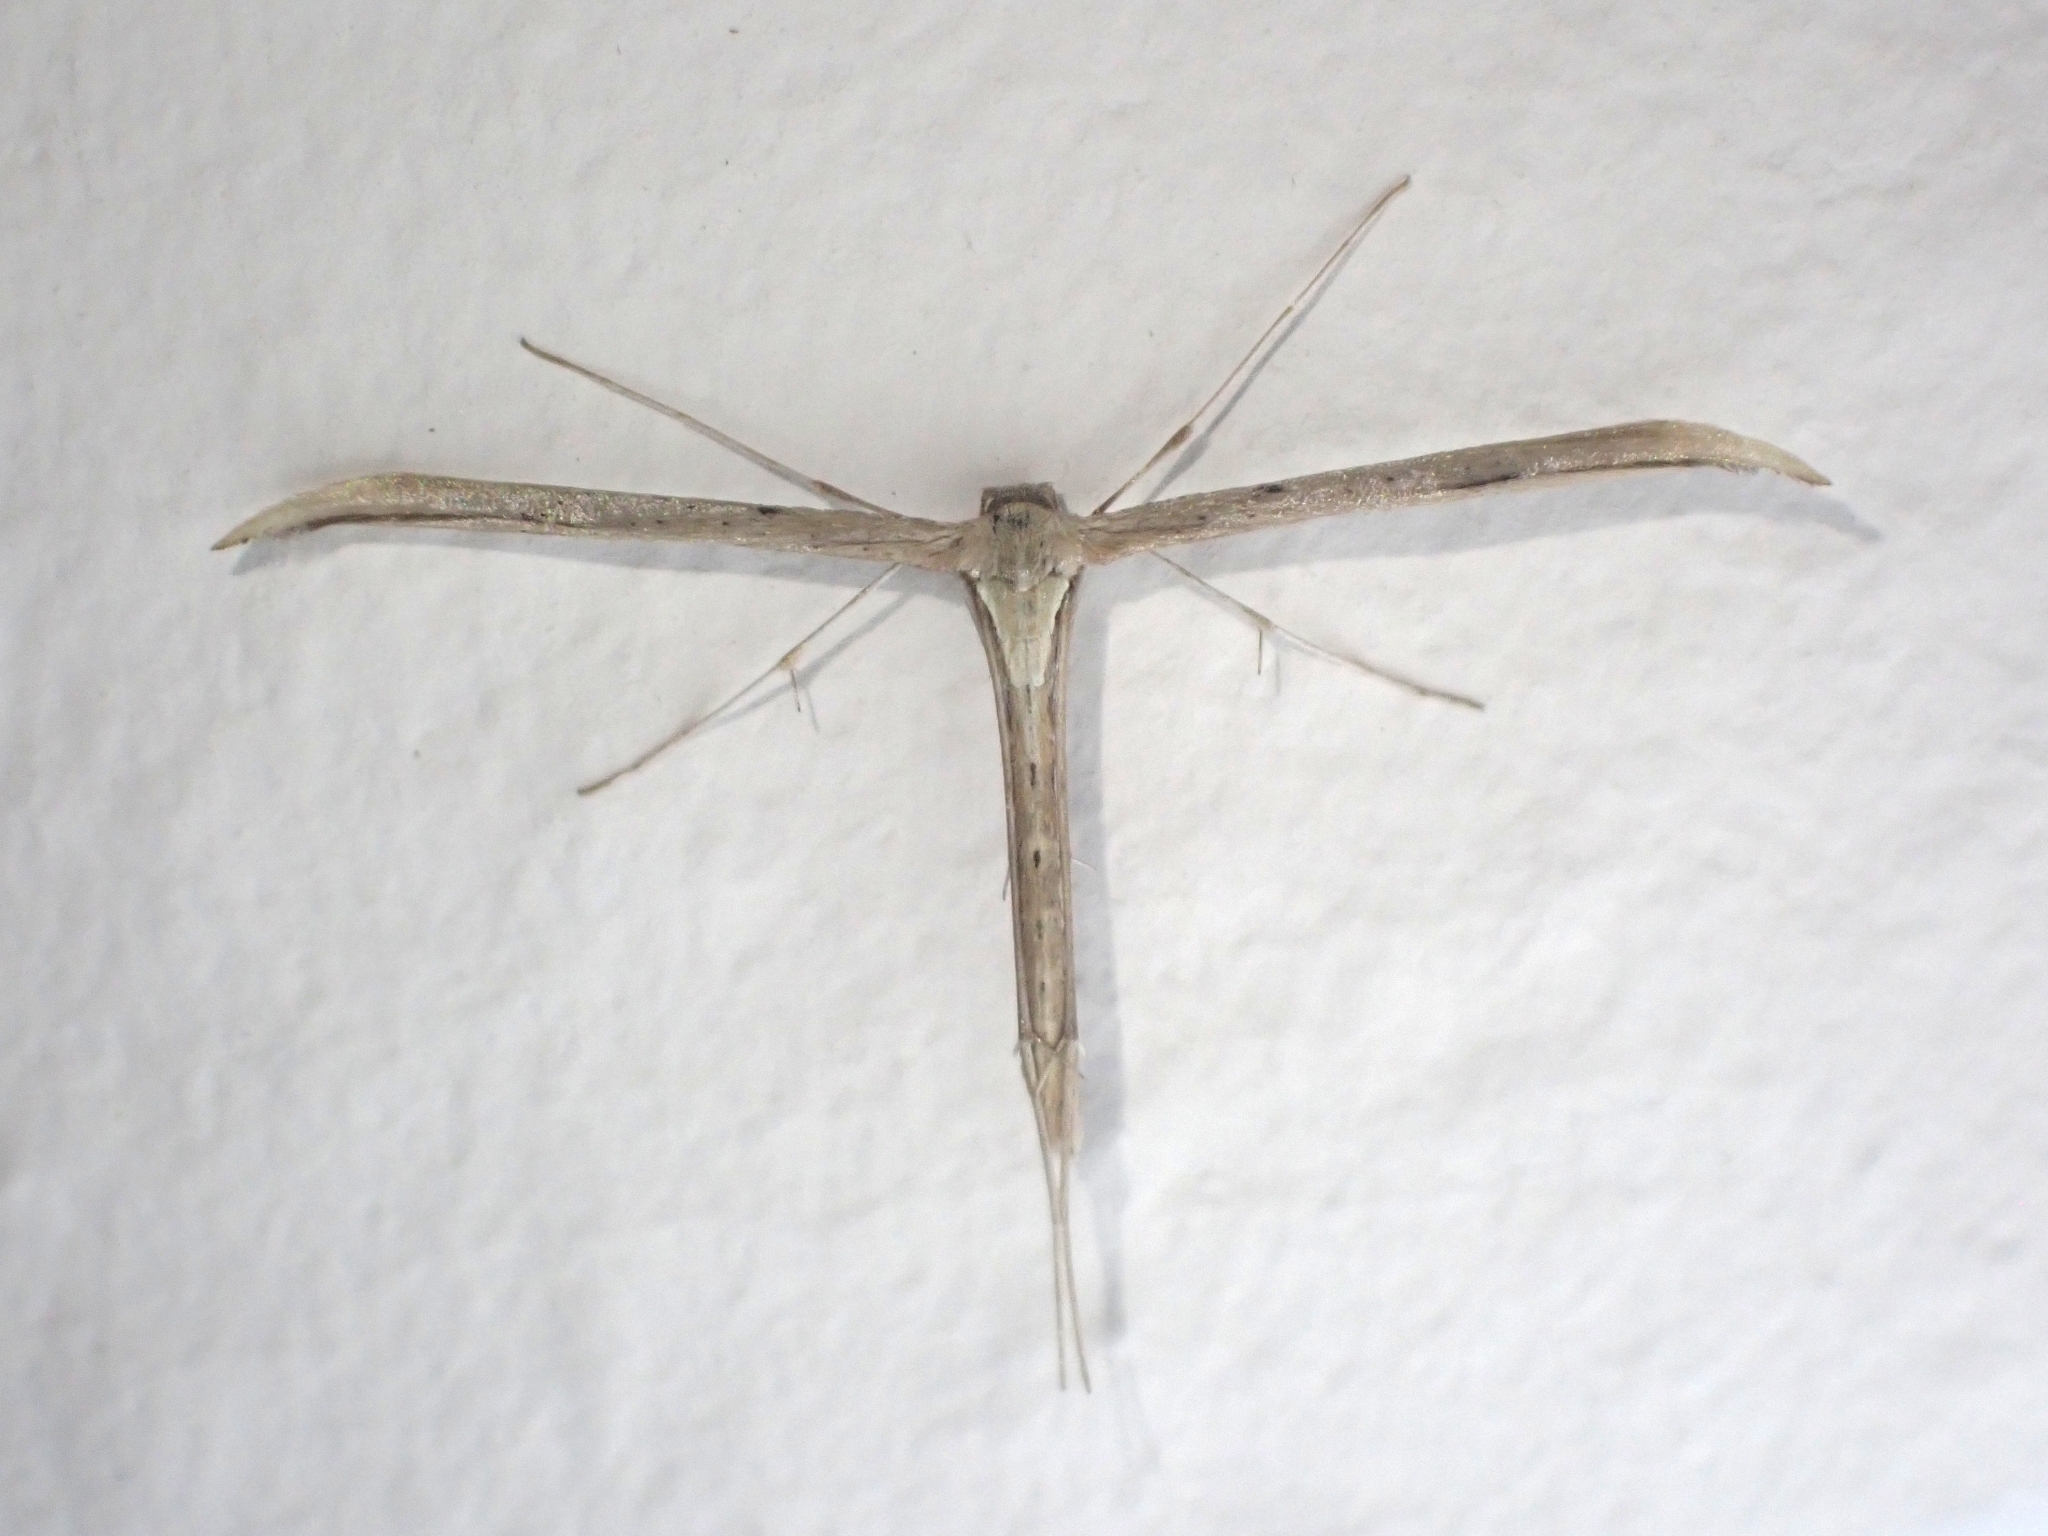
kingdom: Animalia
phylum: Arthropoda
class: Insecta
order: Lepidoptera
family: Pterophoridae
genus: Emmelina
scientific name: Emmelina monodactyla
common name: Common plume
